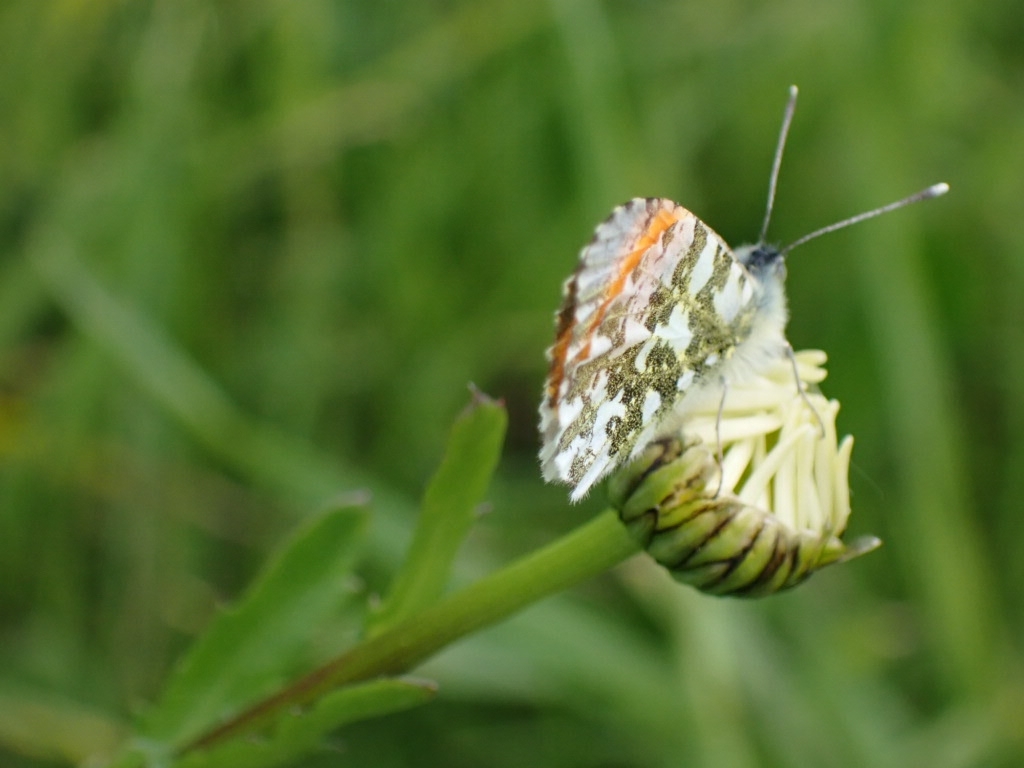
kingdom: Animalia
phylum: Arthropoda
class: Insecta
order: Lepidoptera
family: Pieridae
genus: Anthocharis
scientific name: Anthocharis cardamines
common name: Orange-tip
